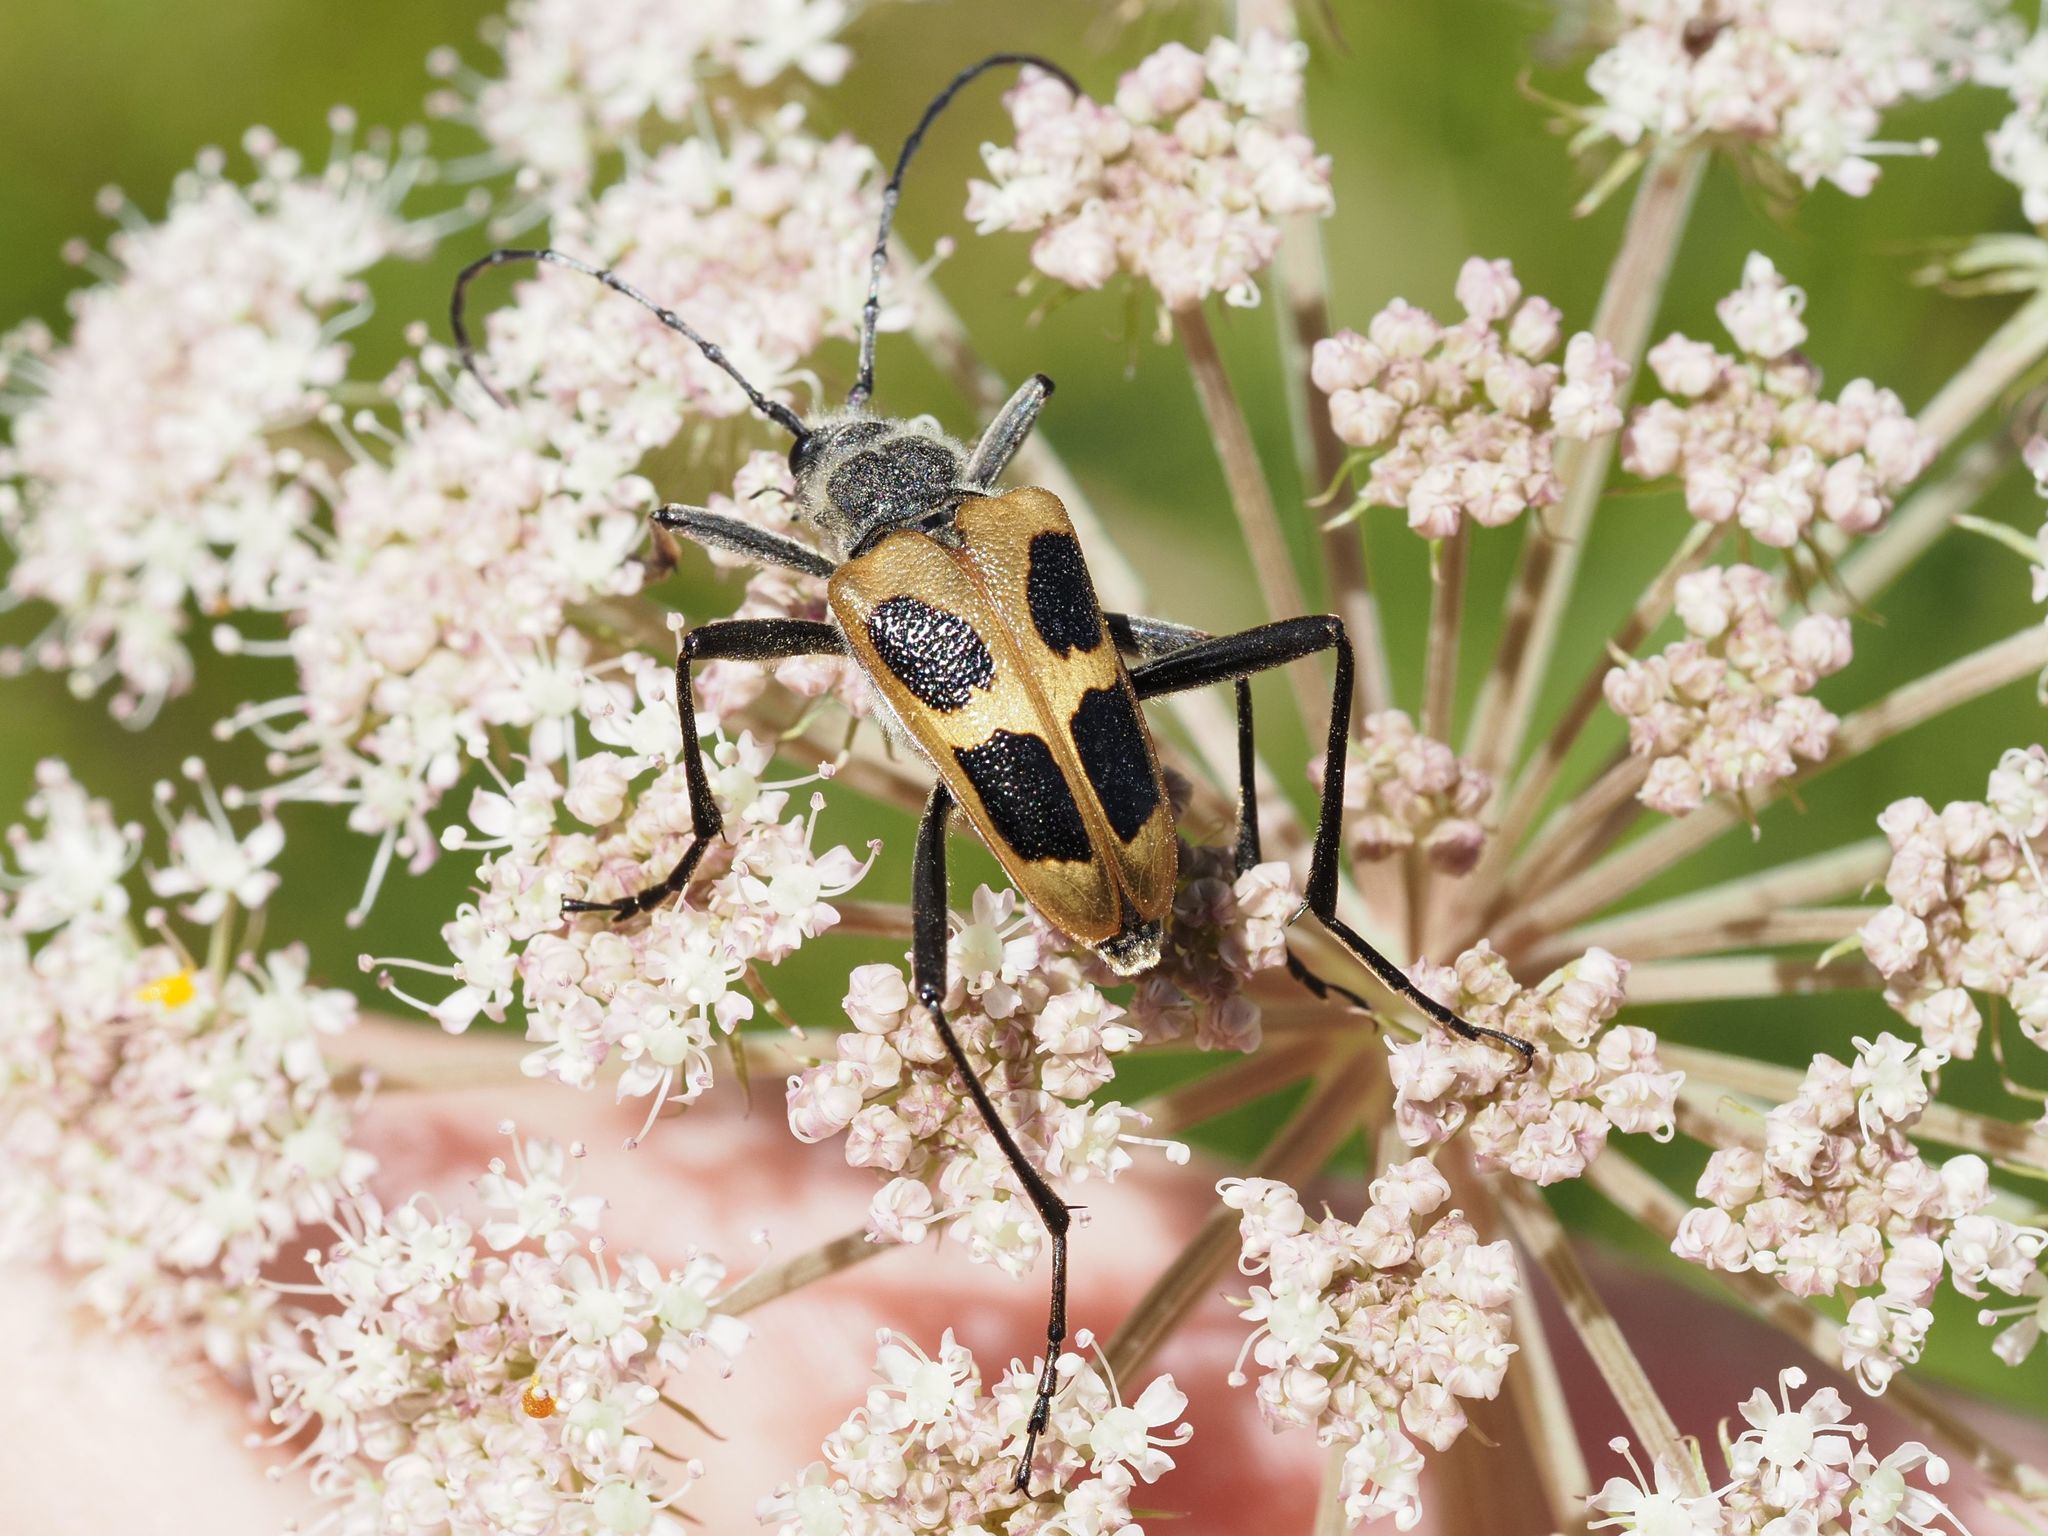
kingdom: Animalia
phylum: Arthropoda
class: Insecta
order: Coleoptera
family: Cerambycidae
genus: Pachyta
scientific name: Pachyta quadrimaculata
